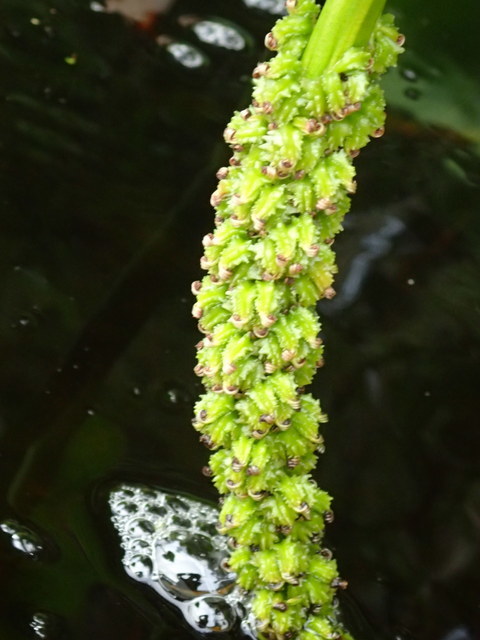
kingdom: Plantae
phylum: Tracheophyta
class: Liliopsida
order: Commelinales
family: Pontederiaceae
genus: Pontederia
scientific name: Pontederia cordata
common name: Pickerelweed
